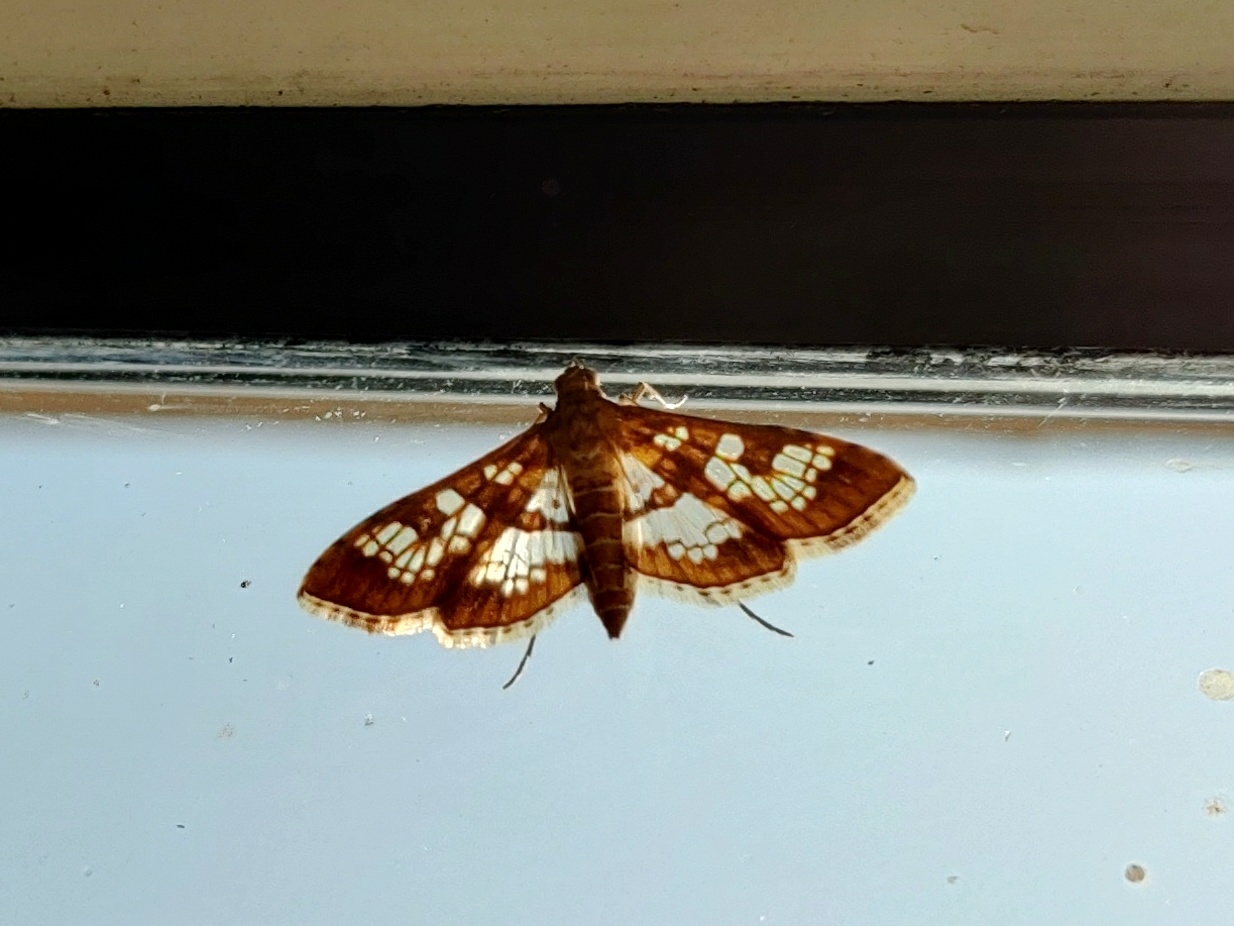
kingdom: Animalia
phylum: Arthropoda
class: Insecta
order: Lepidoptera
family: Crambidae
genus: Sameodes
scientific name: Sameodes cancellalis
